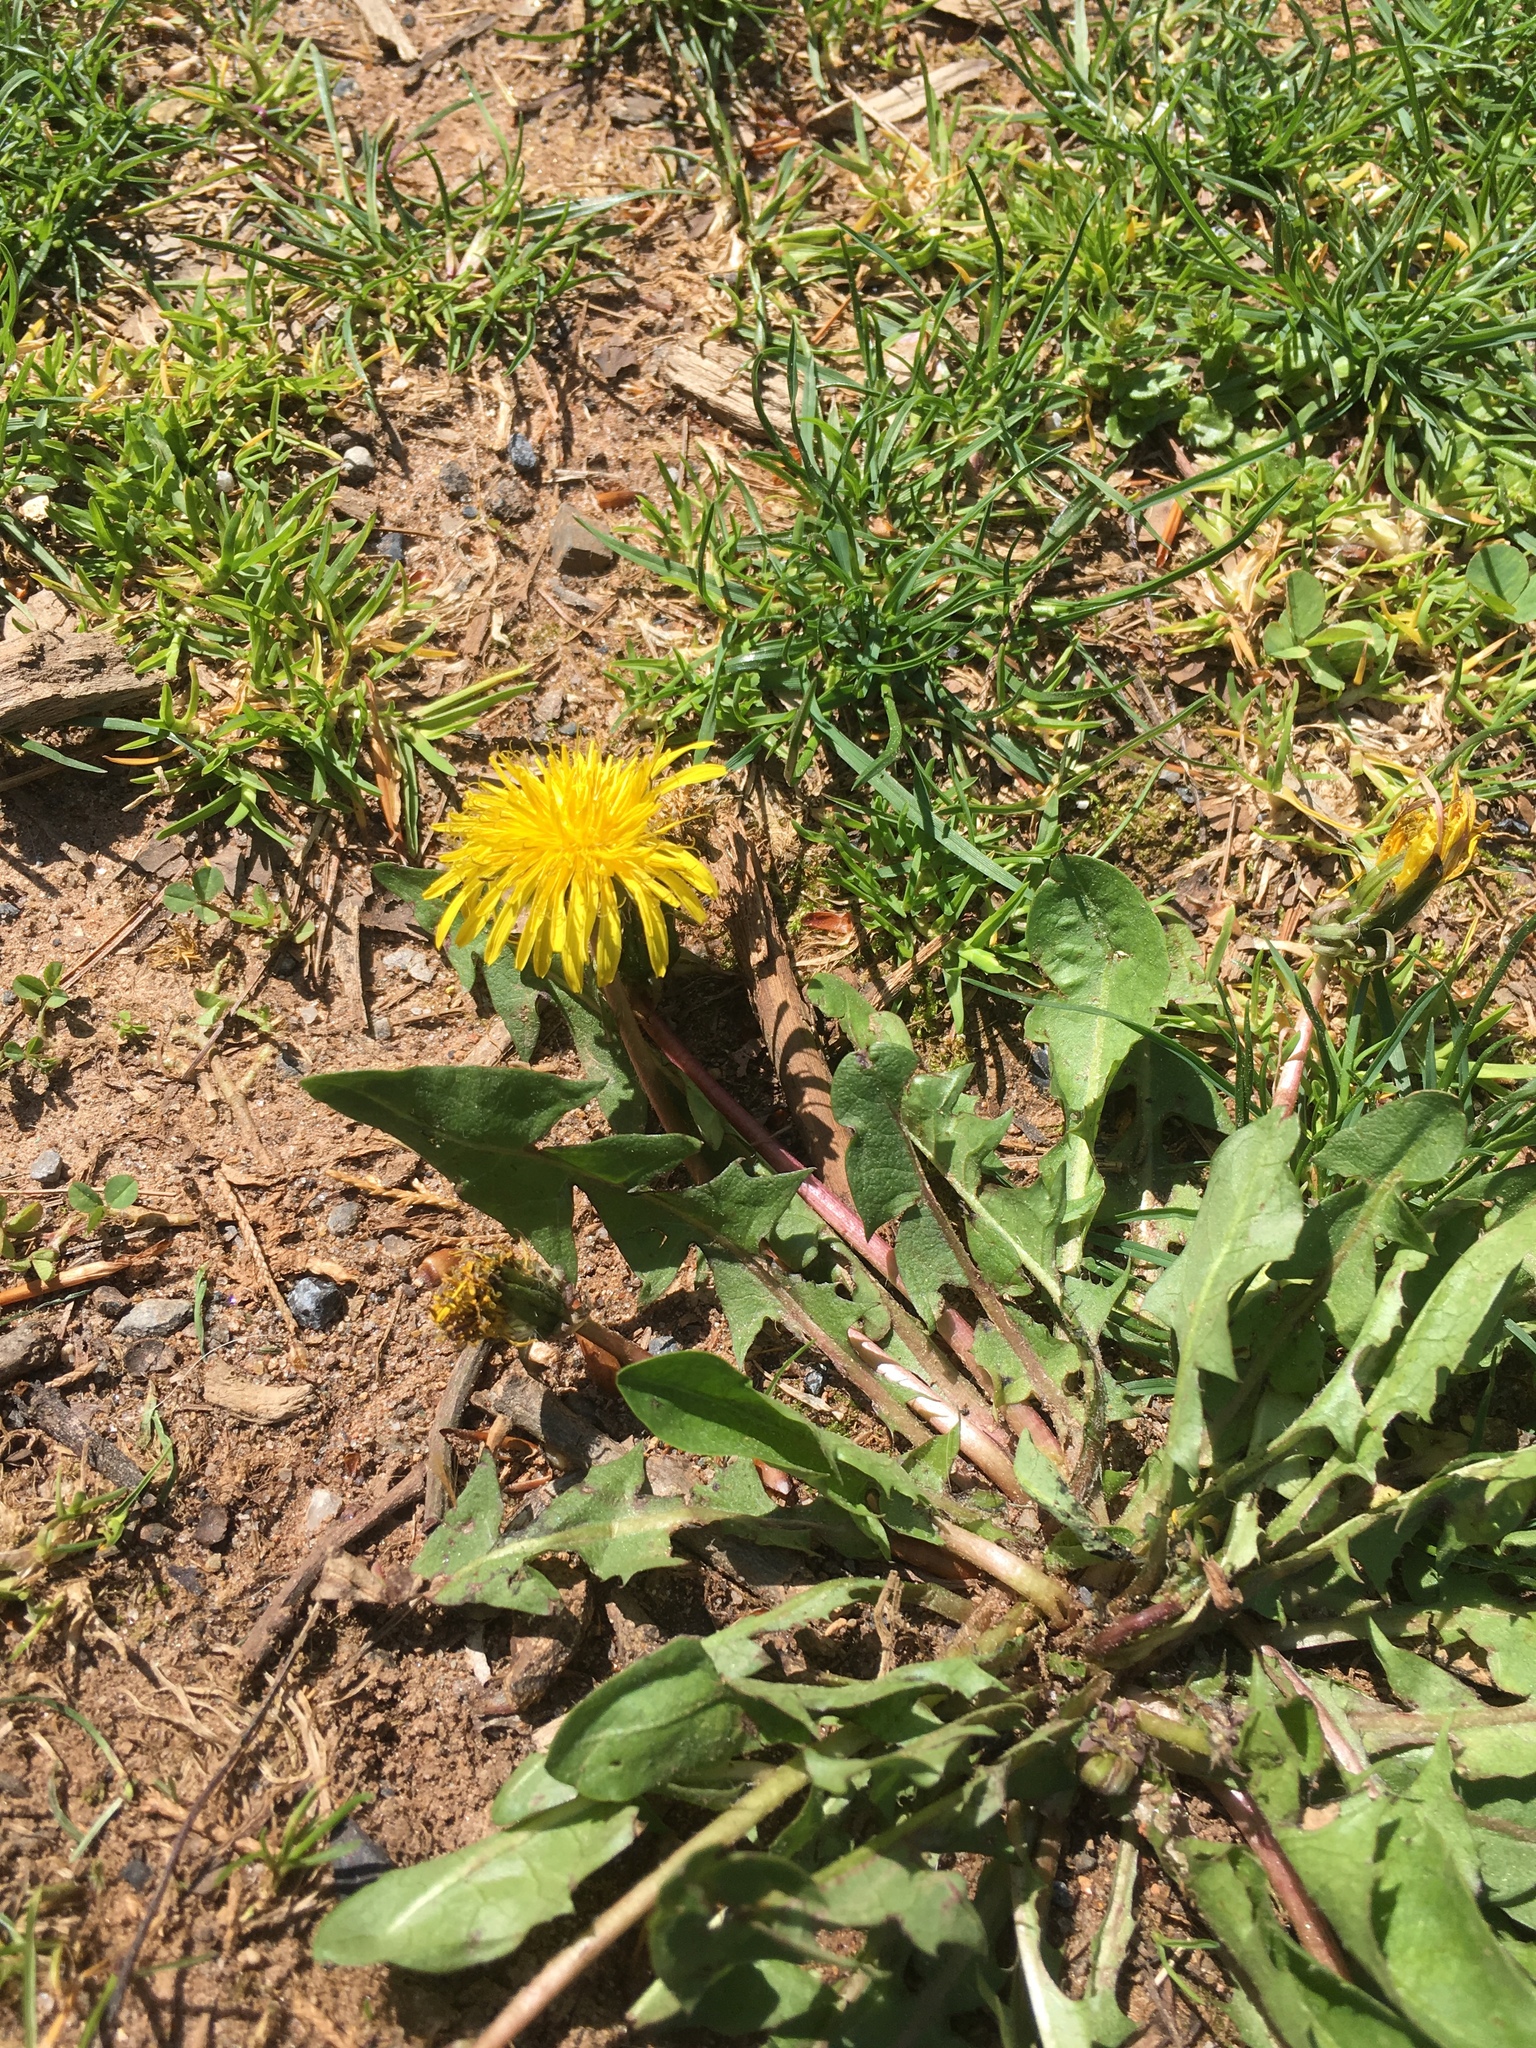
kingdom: Plantae
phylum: Tracheophyta
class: Magnoliopsida
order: Asterales
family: Asteraceae
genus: Taraxacum
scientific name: Taraxacum officinale
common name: Common dandelion
